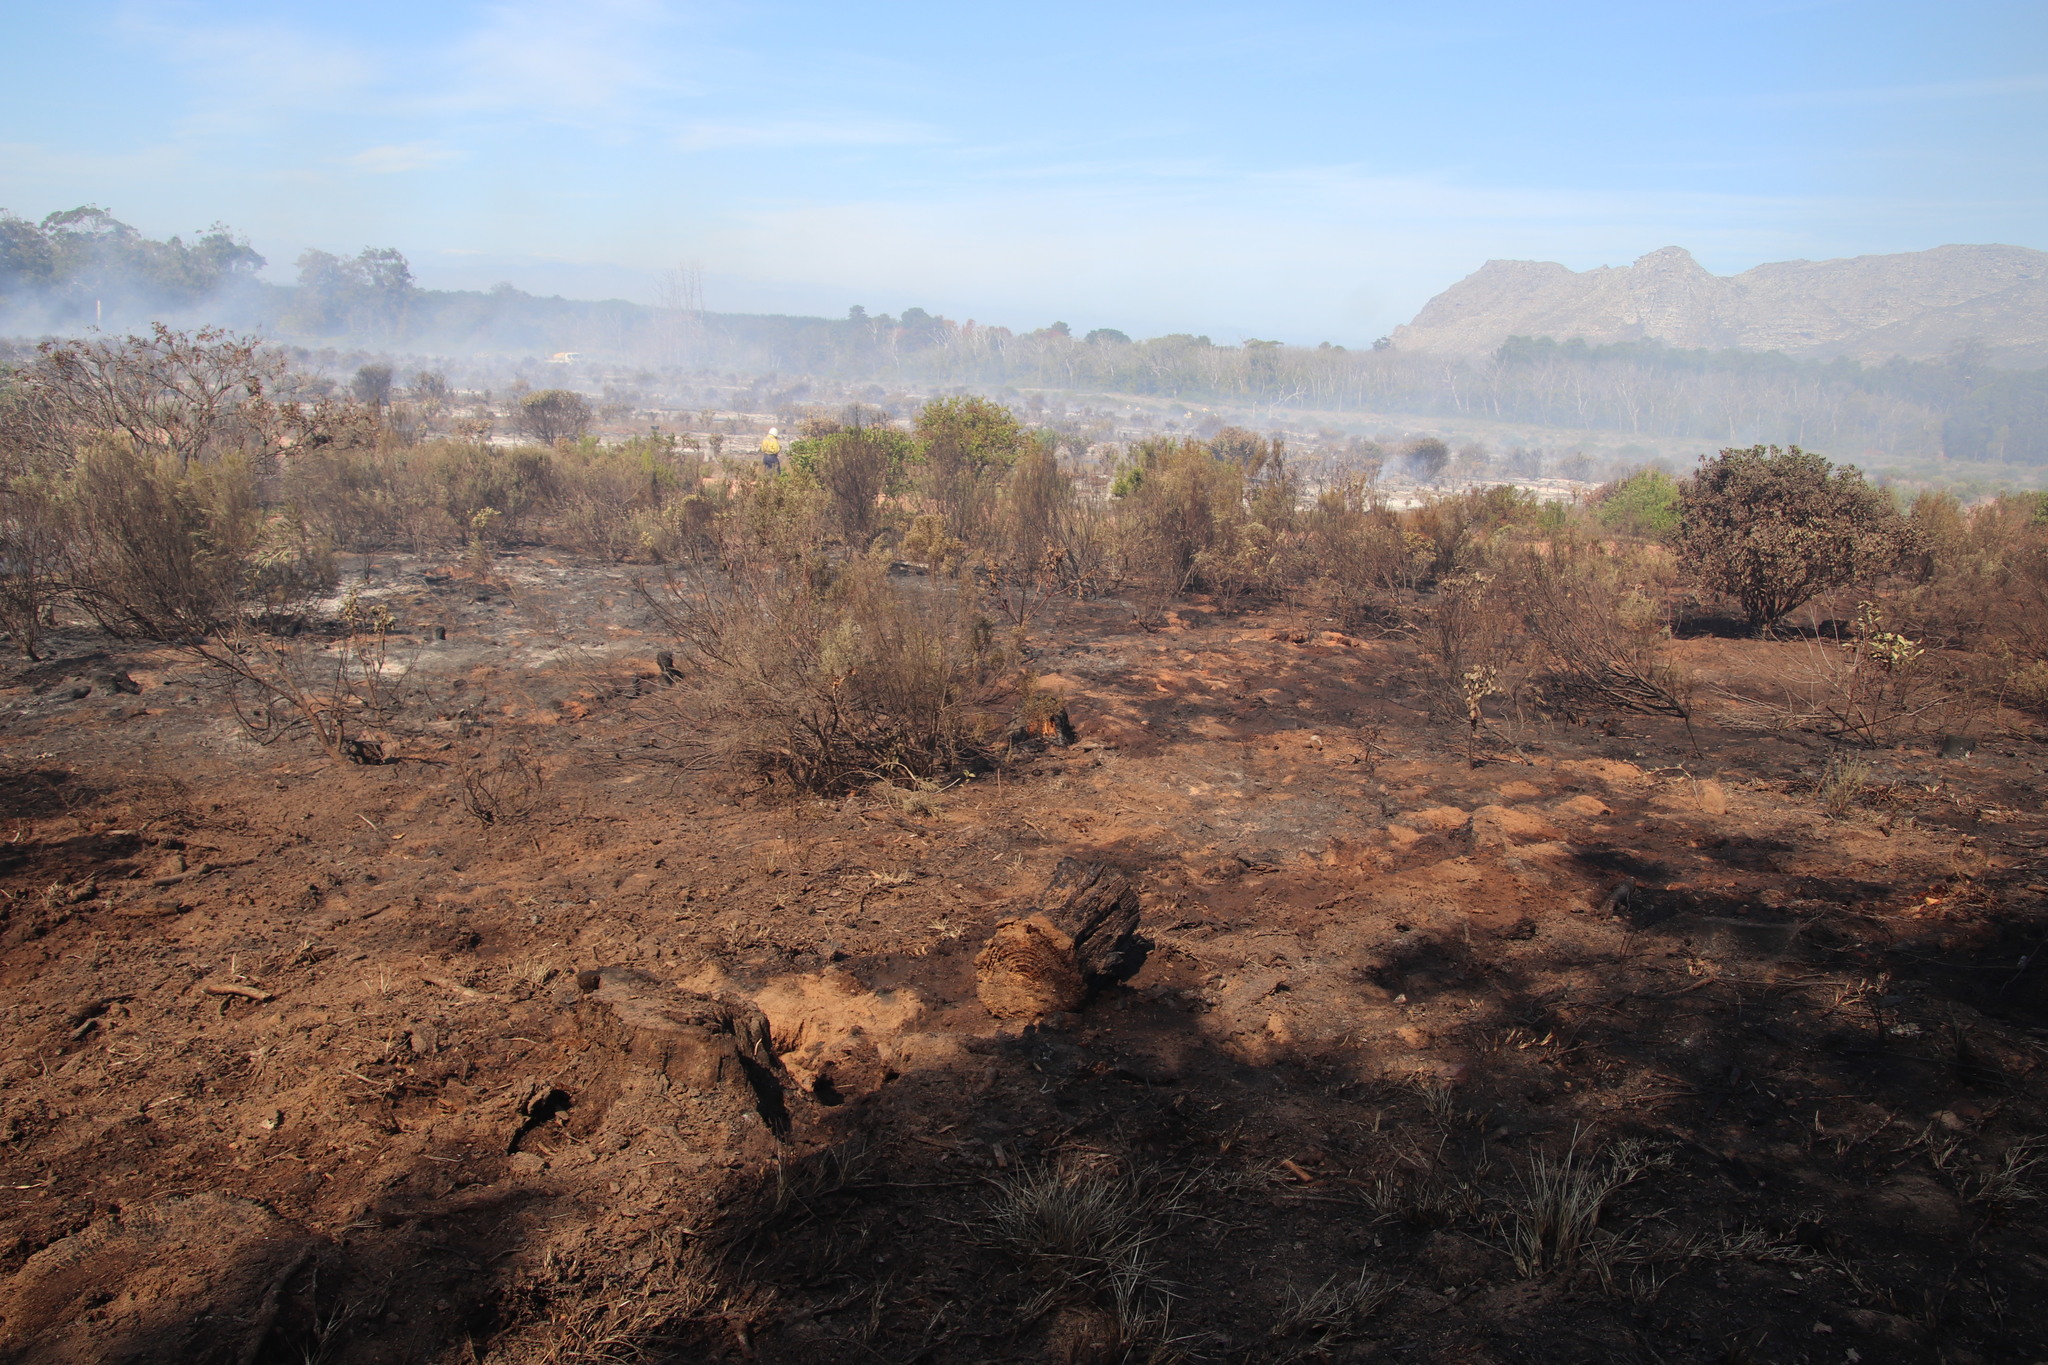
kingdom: Plantae
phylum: Tracheophyta
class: Magnoliopsida
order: Malvales
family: Thymelaeaceae
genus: Passerina
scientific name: Passerina corymbosa
